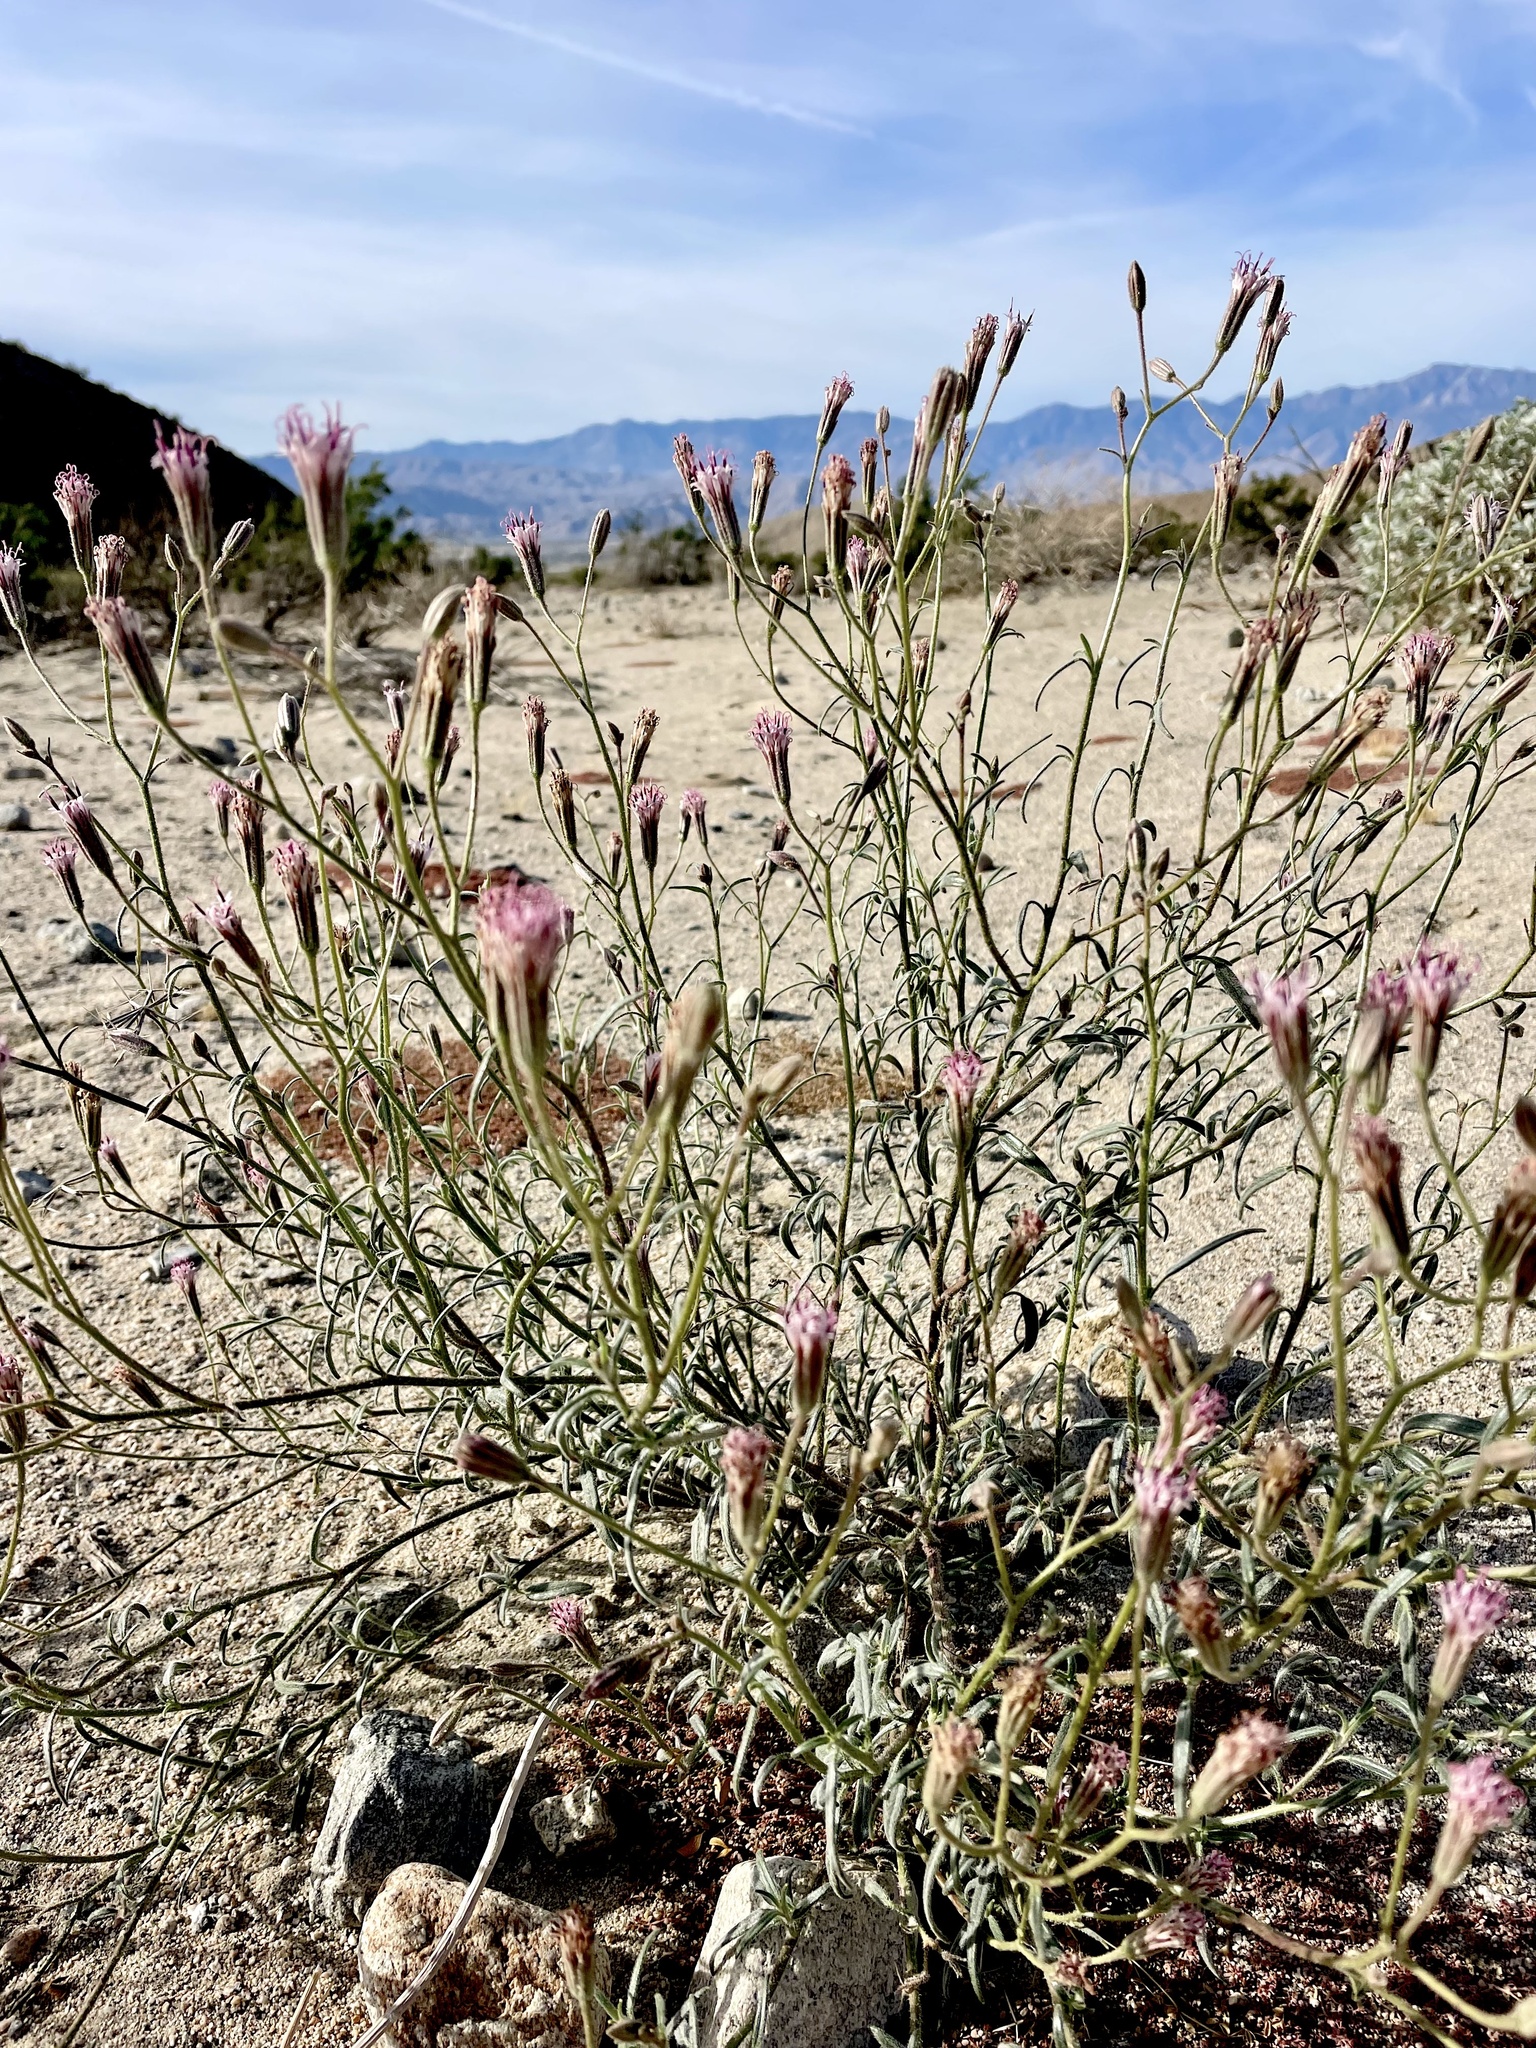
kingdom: Plantae
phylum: Tracheophyta
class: Magnoliopsida
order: Asterales
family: Asteraceae
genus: Palafoxia
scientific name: Palafoxia arida
